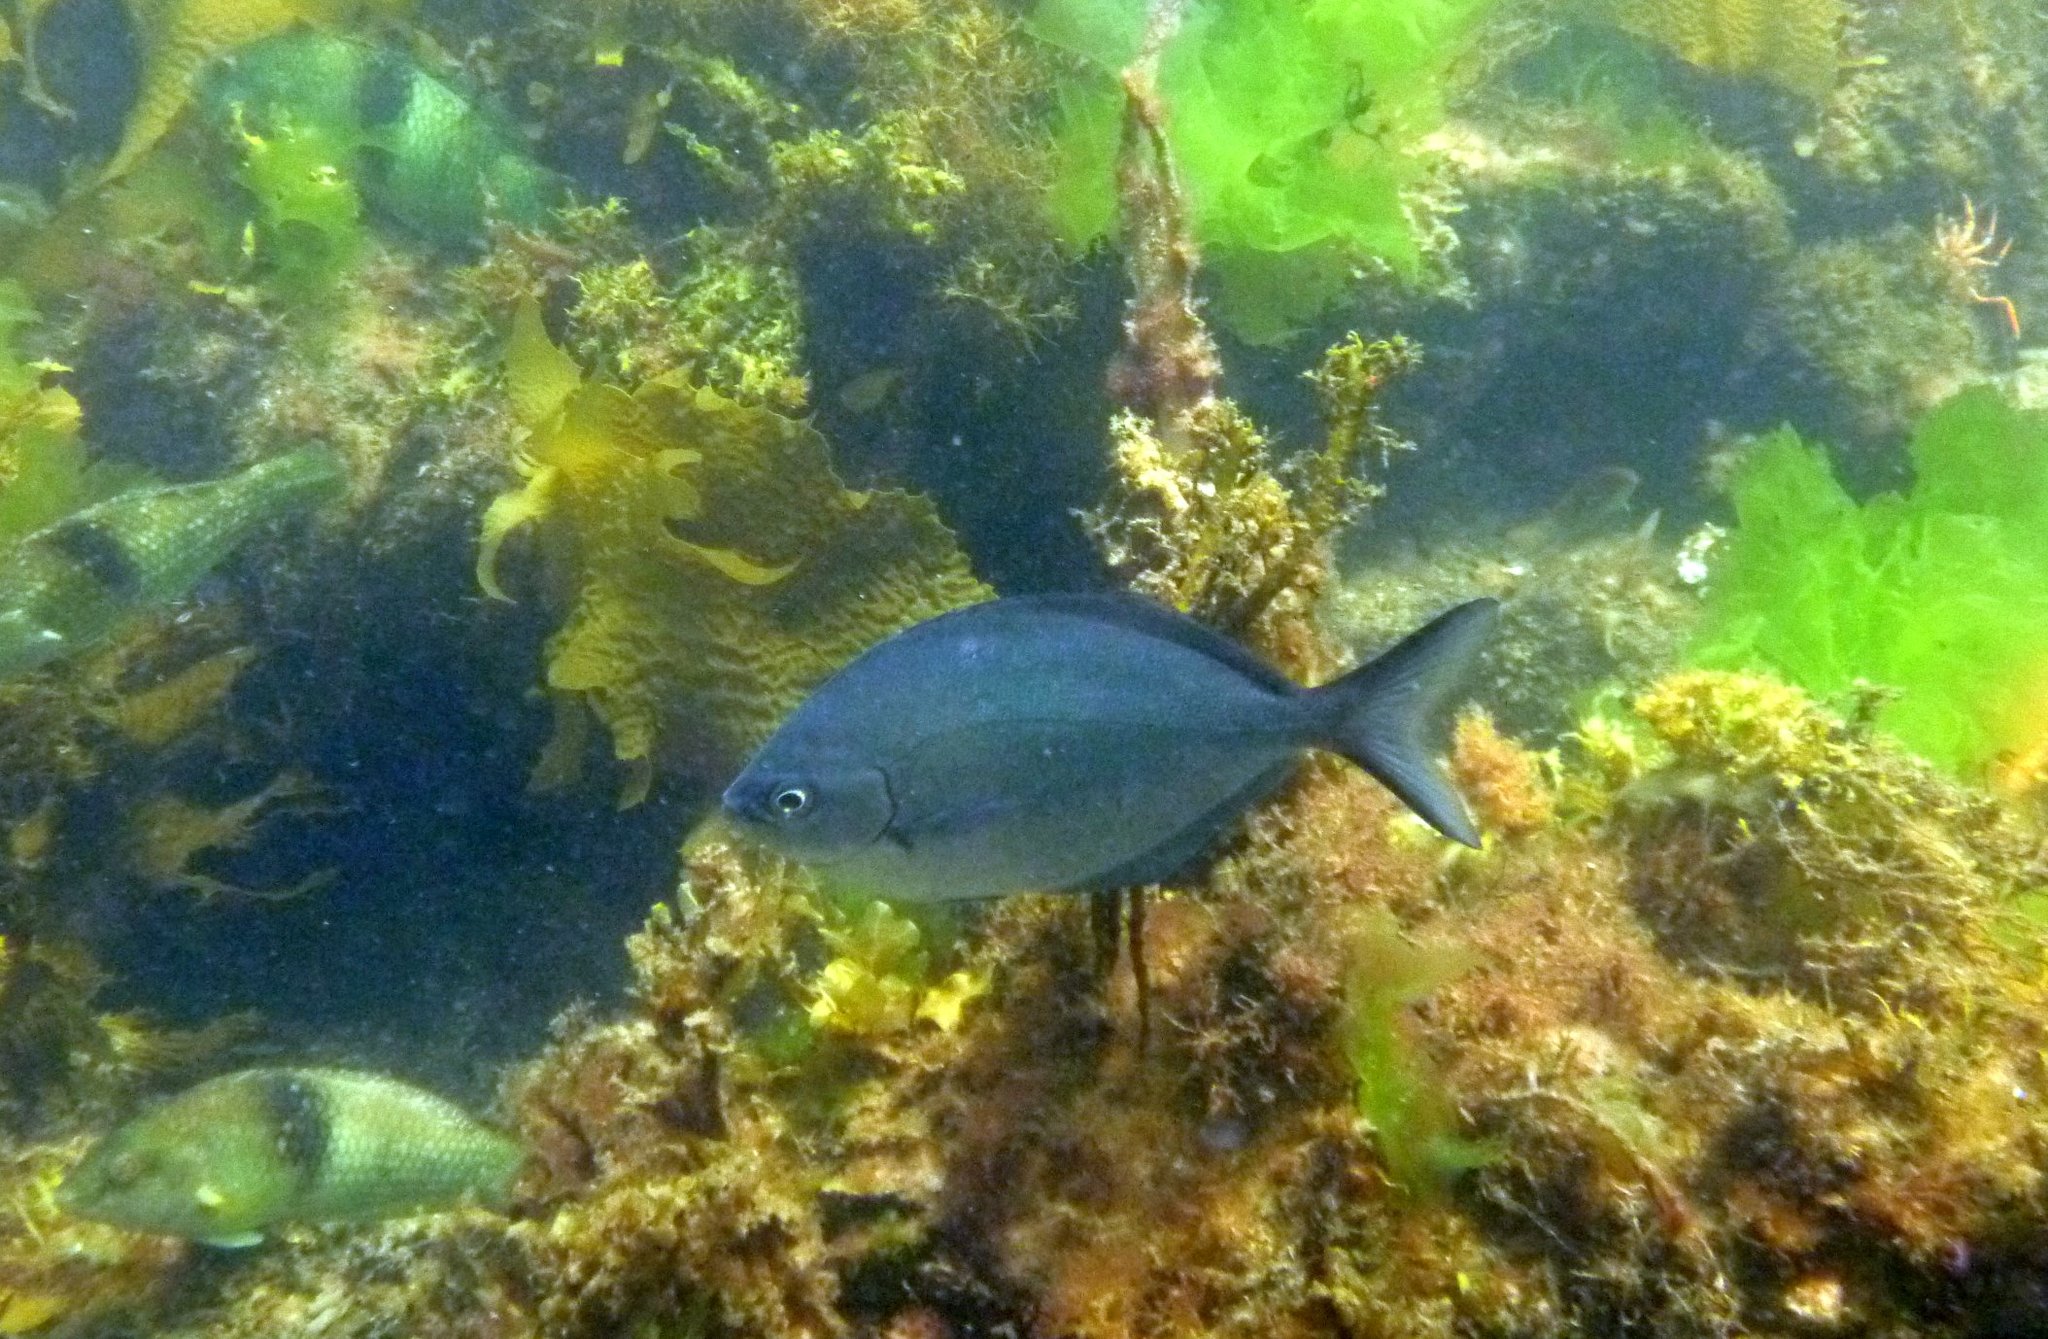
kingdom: Animalia
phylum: Chordata
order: Perciformes
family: Kyphosidae
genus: Scorpis
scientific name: Scorpis lineolata
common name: Sweep
